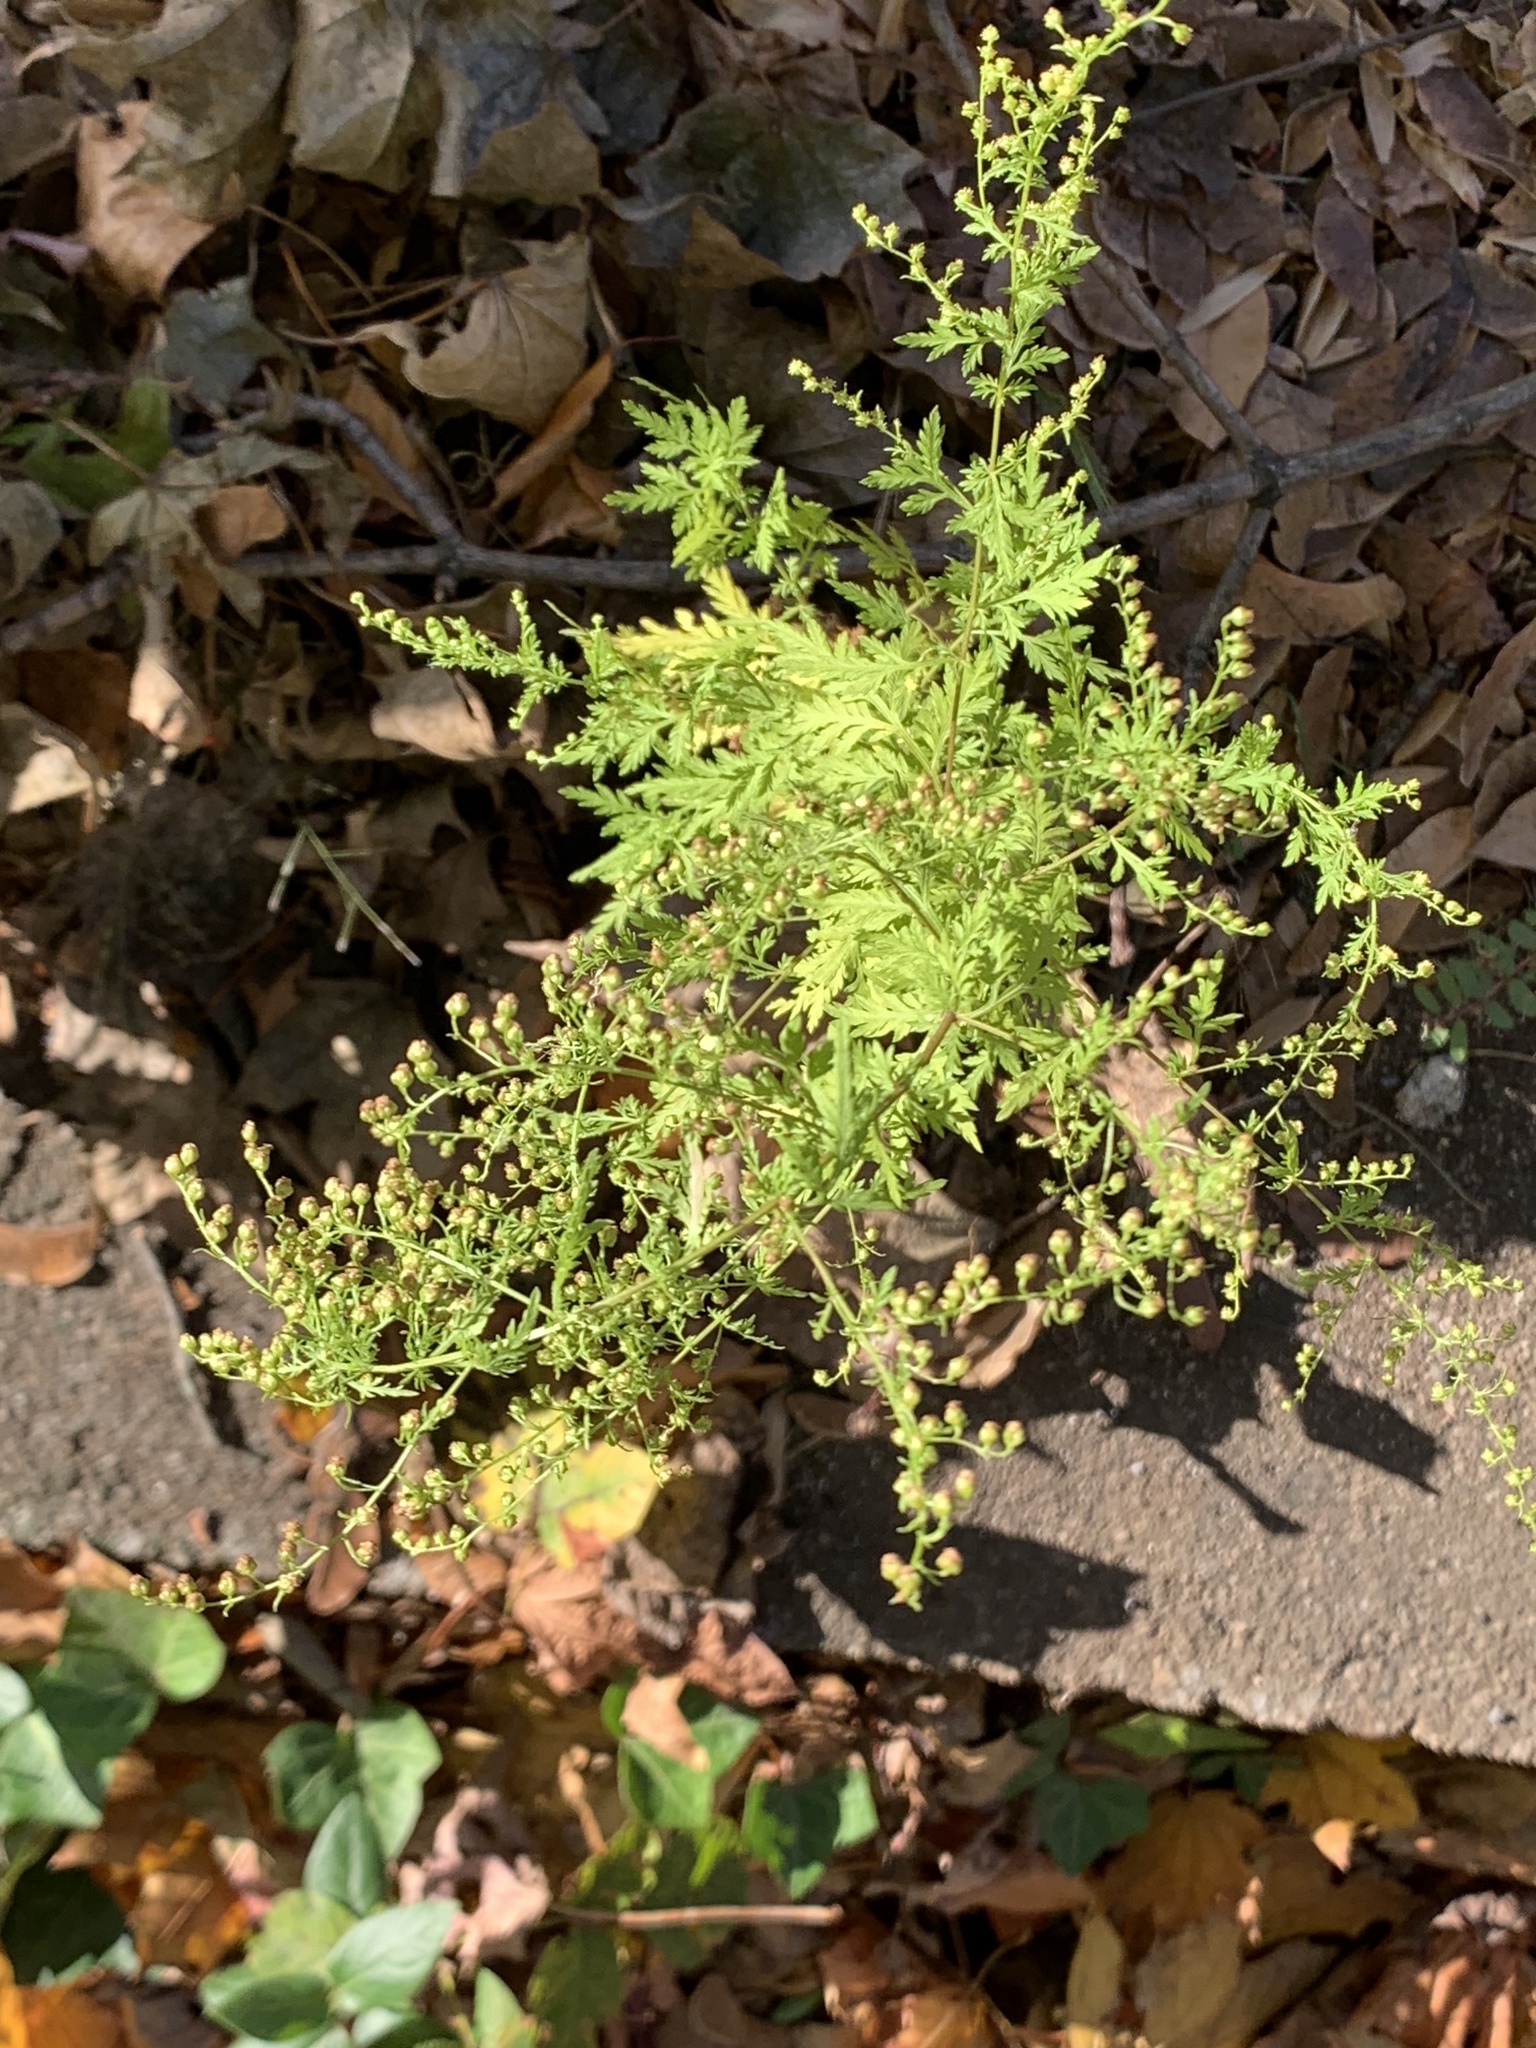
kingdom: Plantae
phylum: Tracheophyta
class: Magnoliopsida
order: Asterales
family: Asteraceae
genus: Artemisia
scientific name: Artemisia annua
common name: Sweet sagewort
